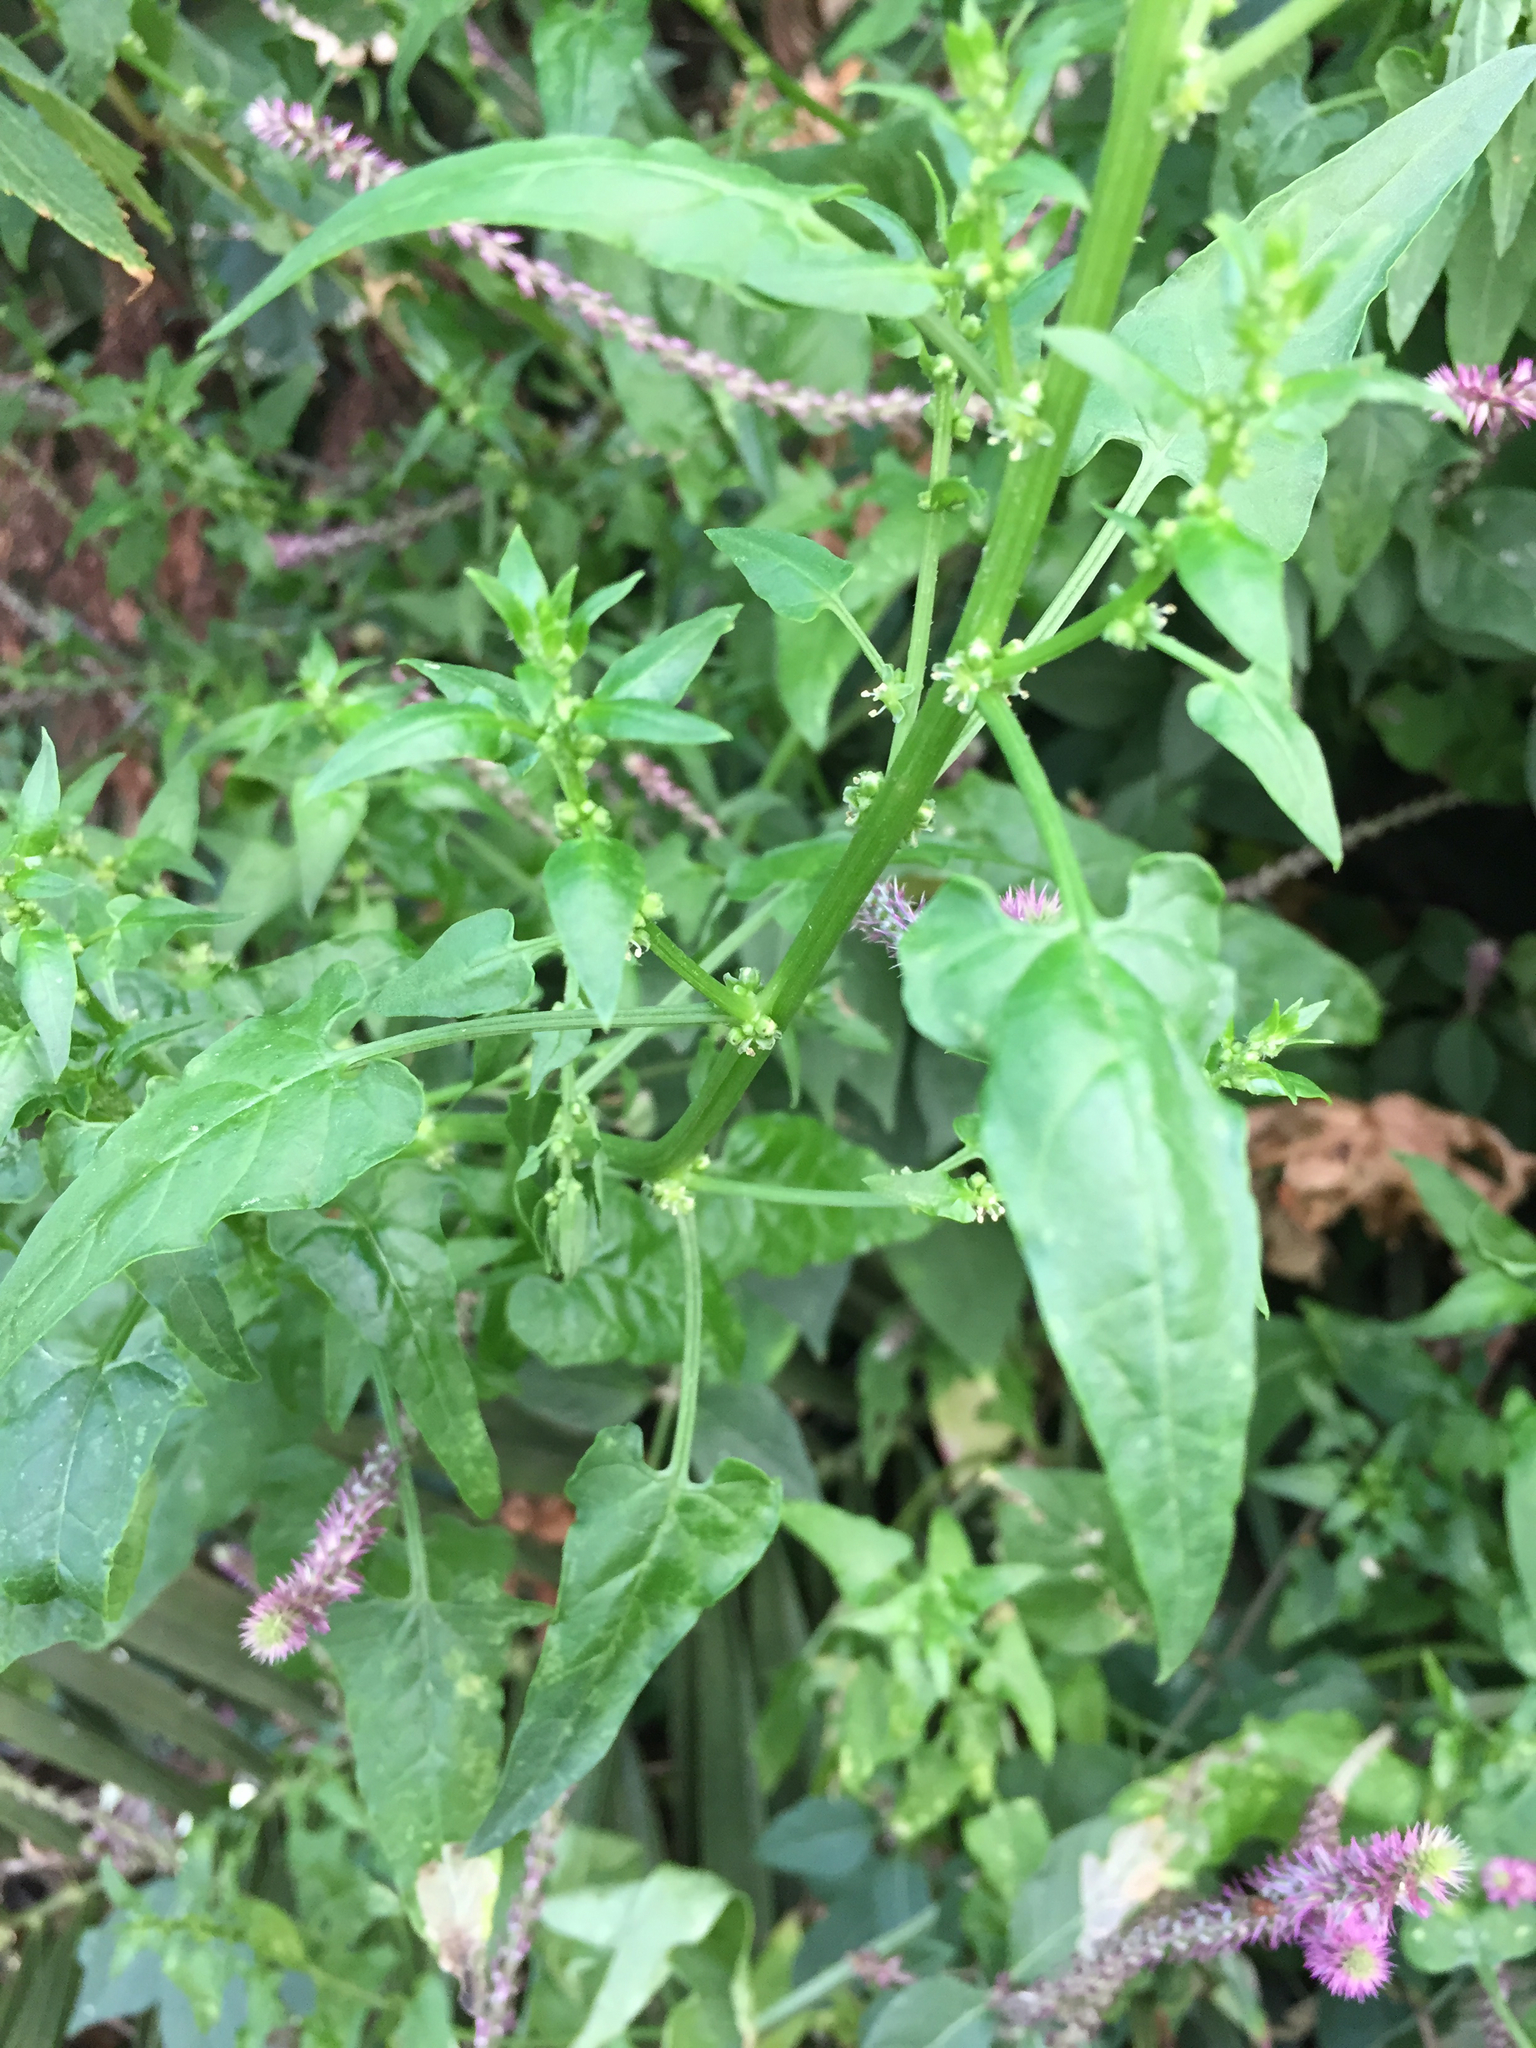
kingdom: Plantae
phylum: Tracheophyta
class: Magnoliopsida
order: Caryophyllales
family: Amaranthaceae
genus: Achyranthes
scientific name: Achyranthes aspera
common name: Devil's horsewhip
